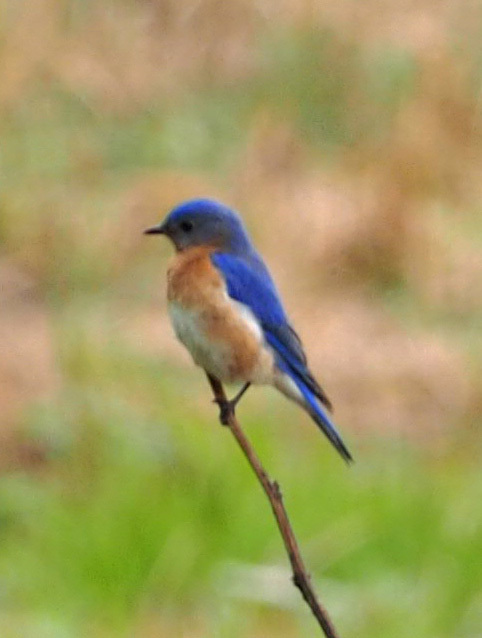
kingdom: Animalia
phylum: Chordata
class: Aves
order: Passeriformes
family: Turdidae
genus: Sialia
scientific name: Sialia sialis
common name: Eastern bluebird
